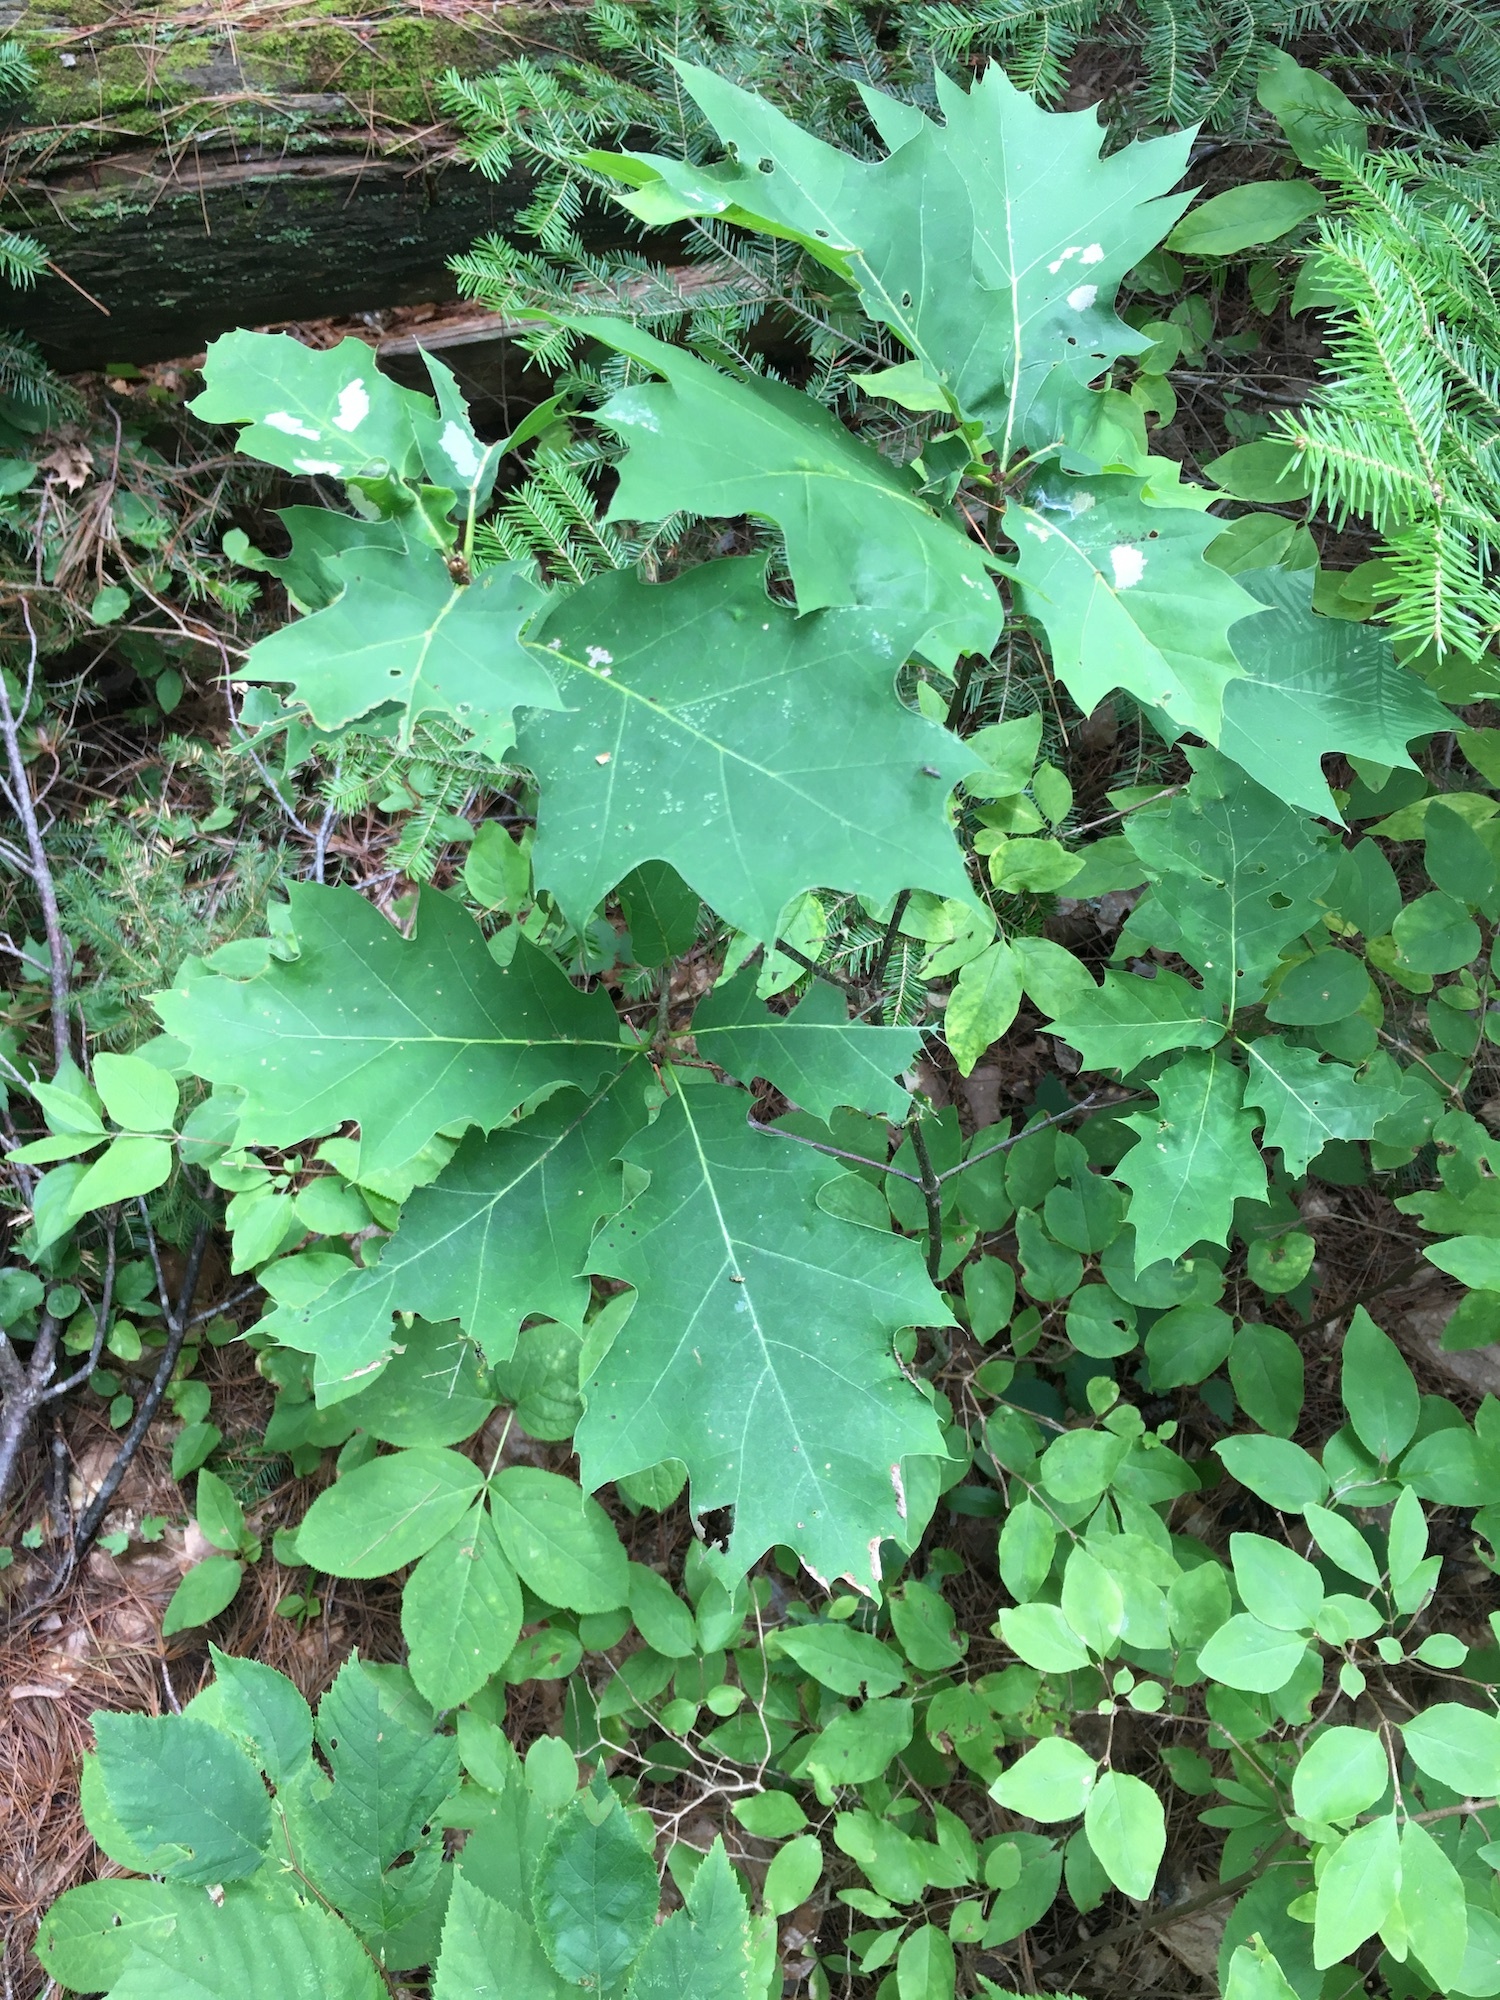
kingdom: Plantae
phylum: Tracheophyta
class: Magnoliopsida
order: Fagales
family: Fagaceae
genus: Quercus
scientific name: Quercus rubra
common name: Red oak
